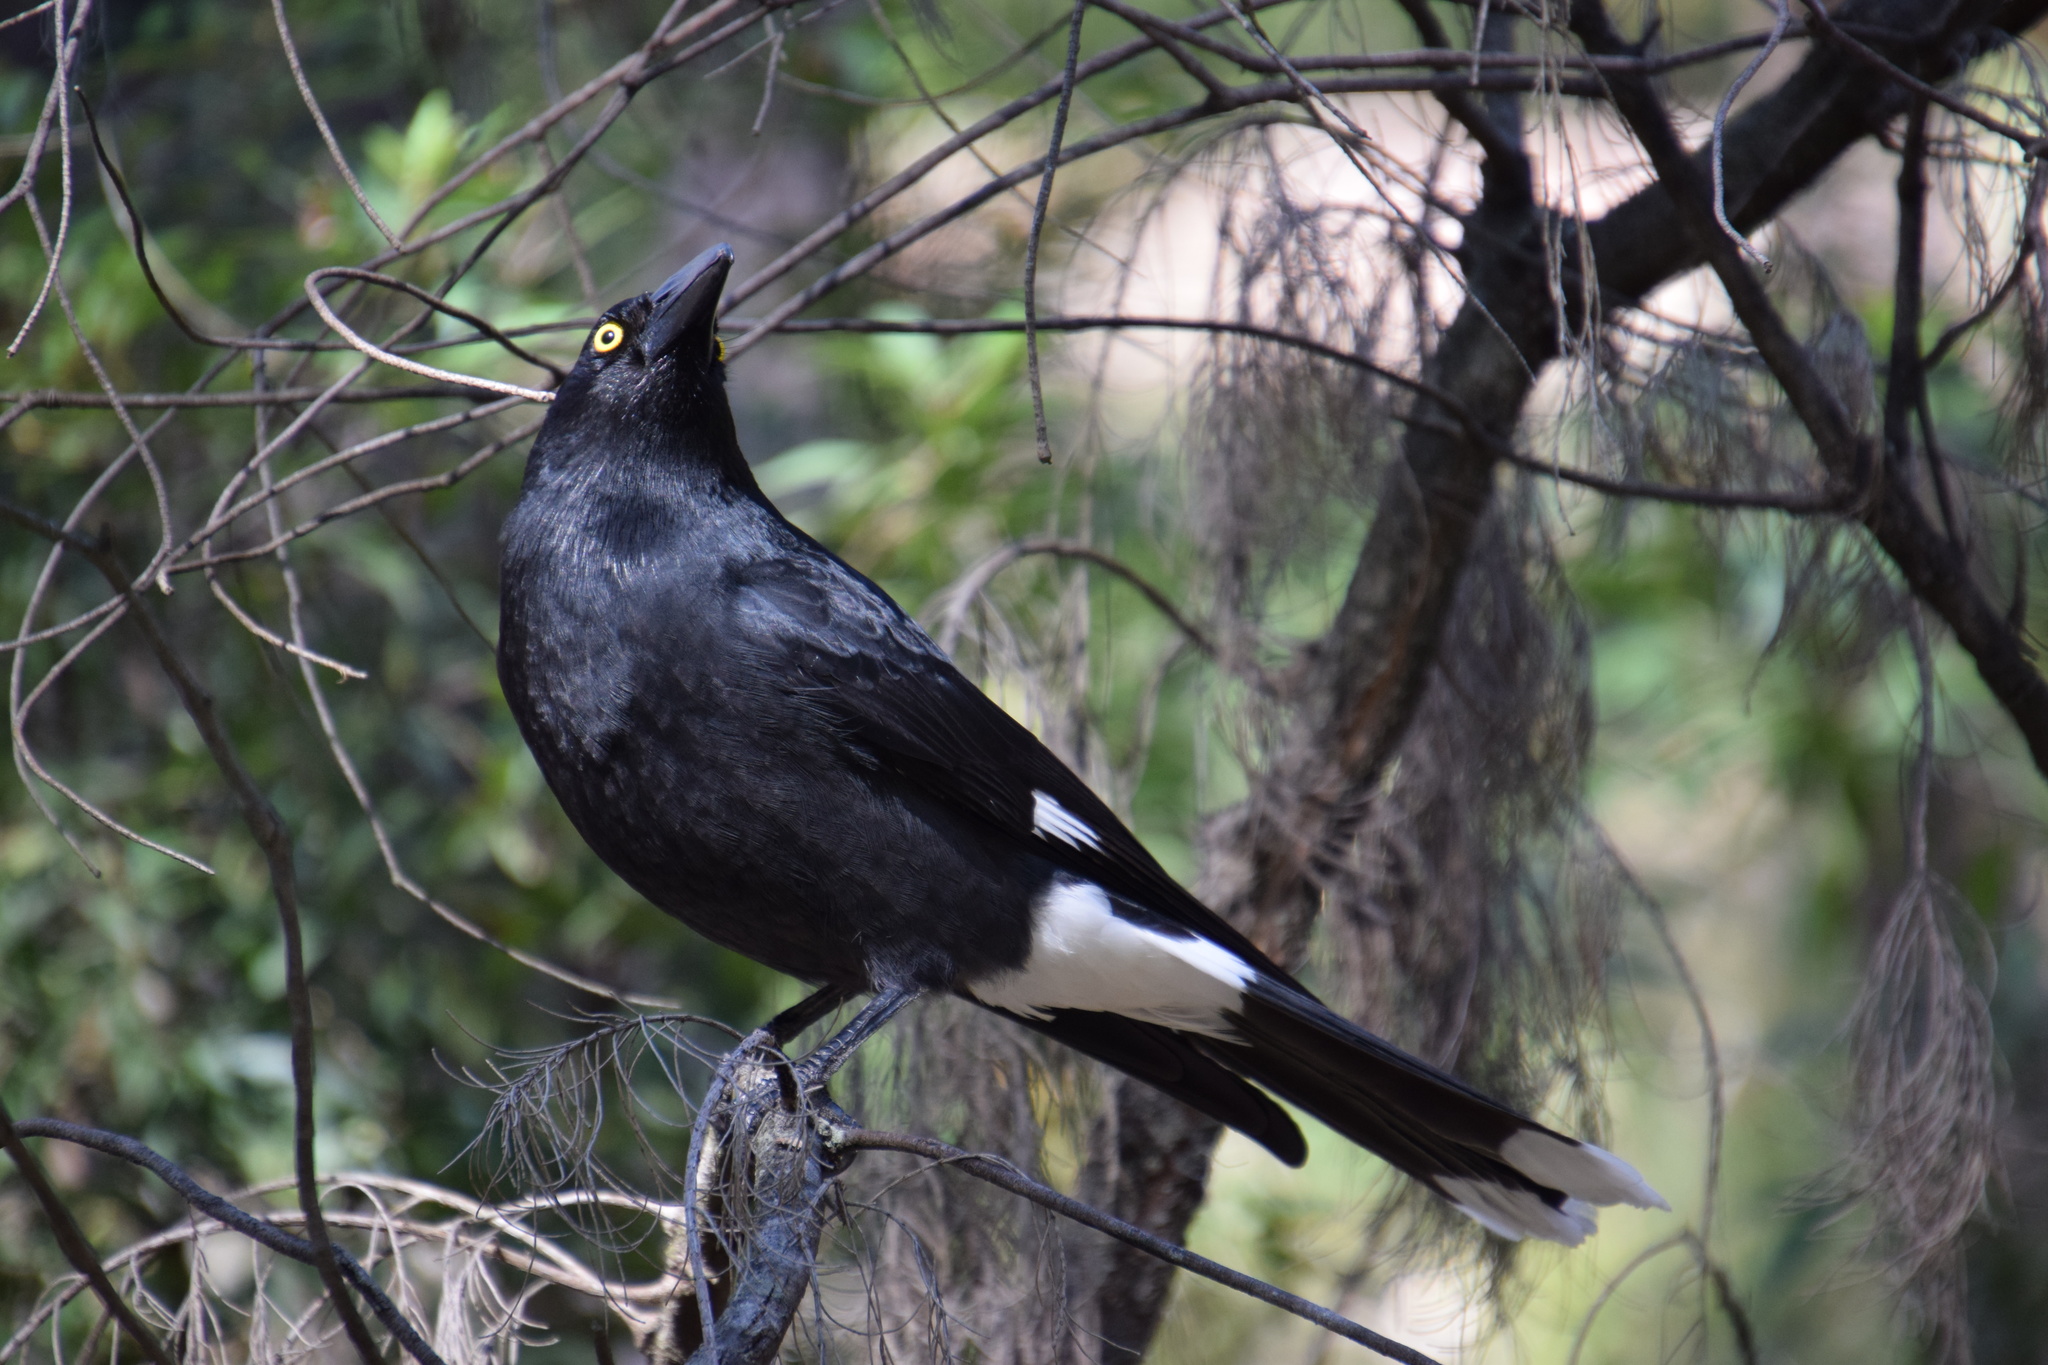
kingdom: Animalia
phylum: Chordata
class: Aves
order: Passeriformes
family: Cracticidae
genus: Strepera
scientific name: Strepera graculina
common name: Pied currawong
